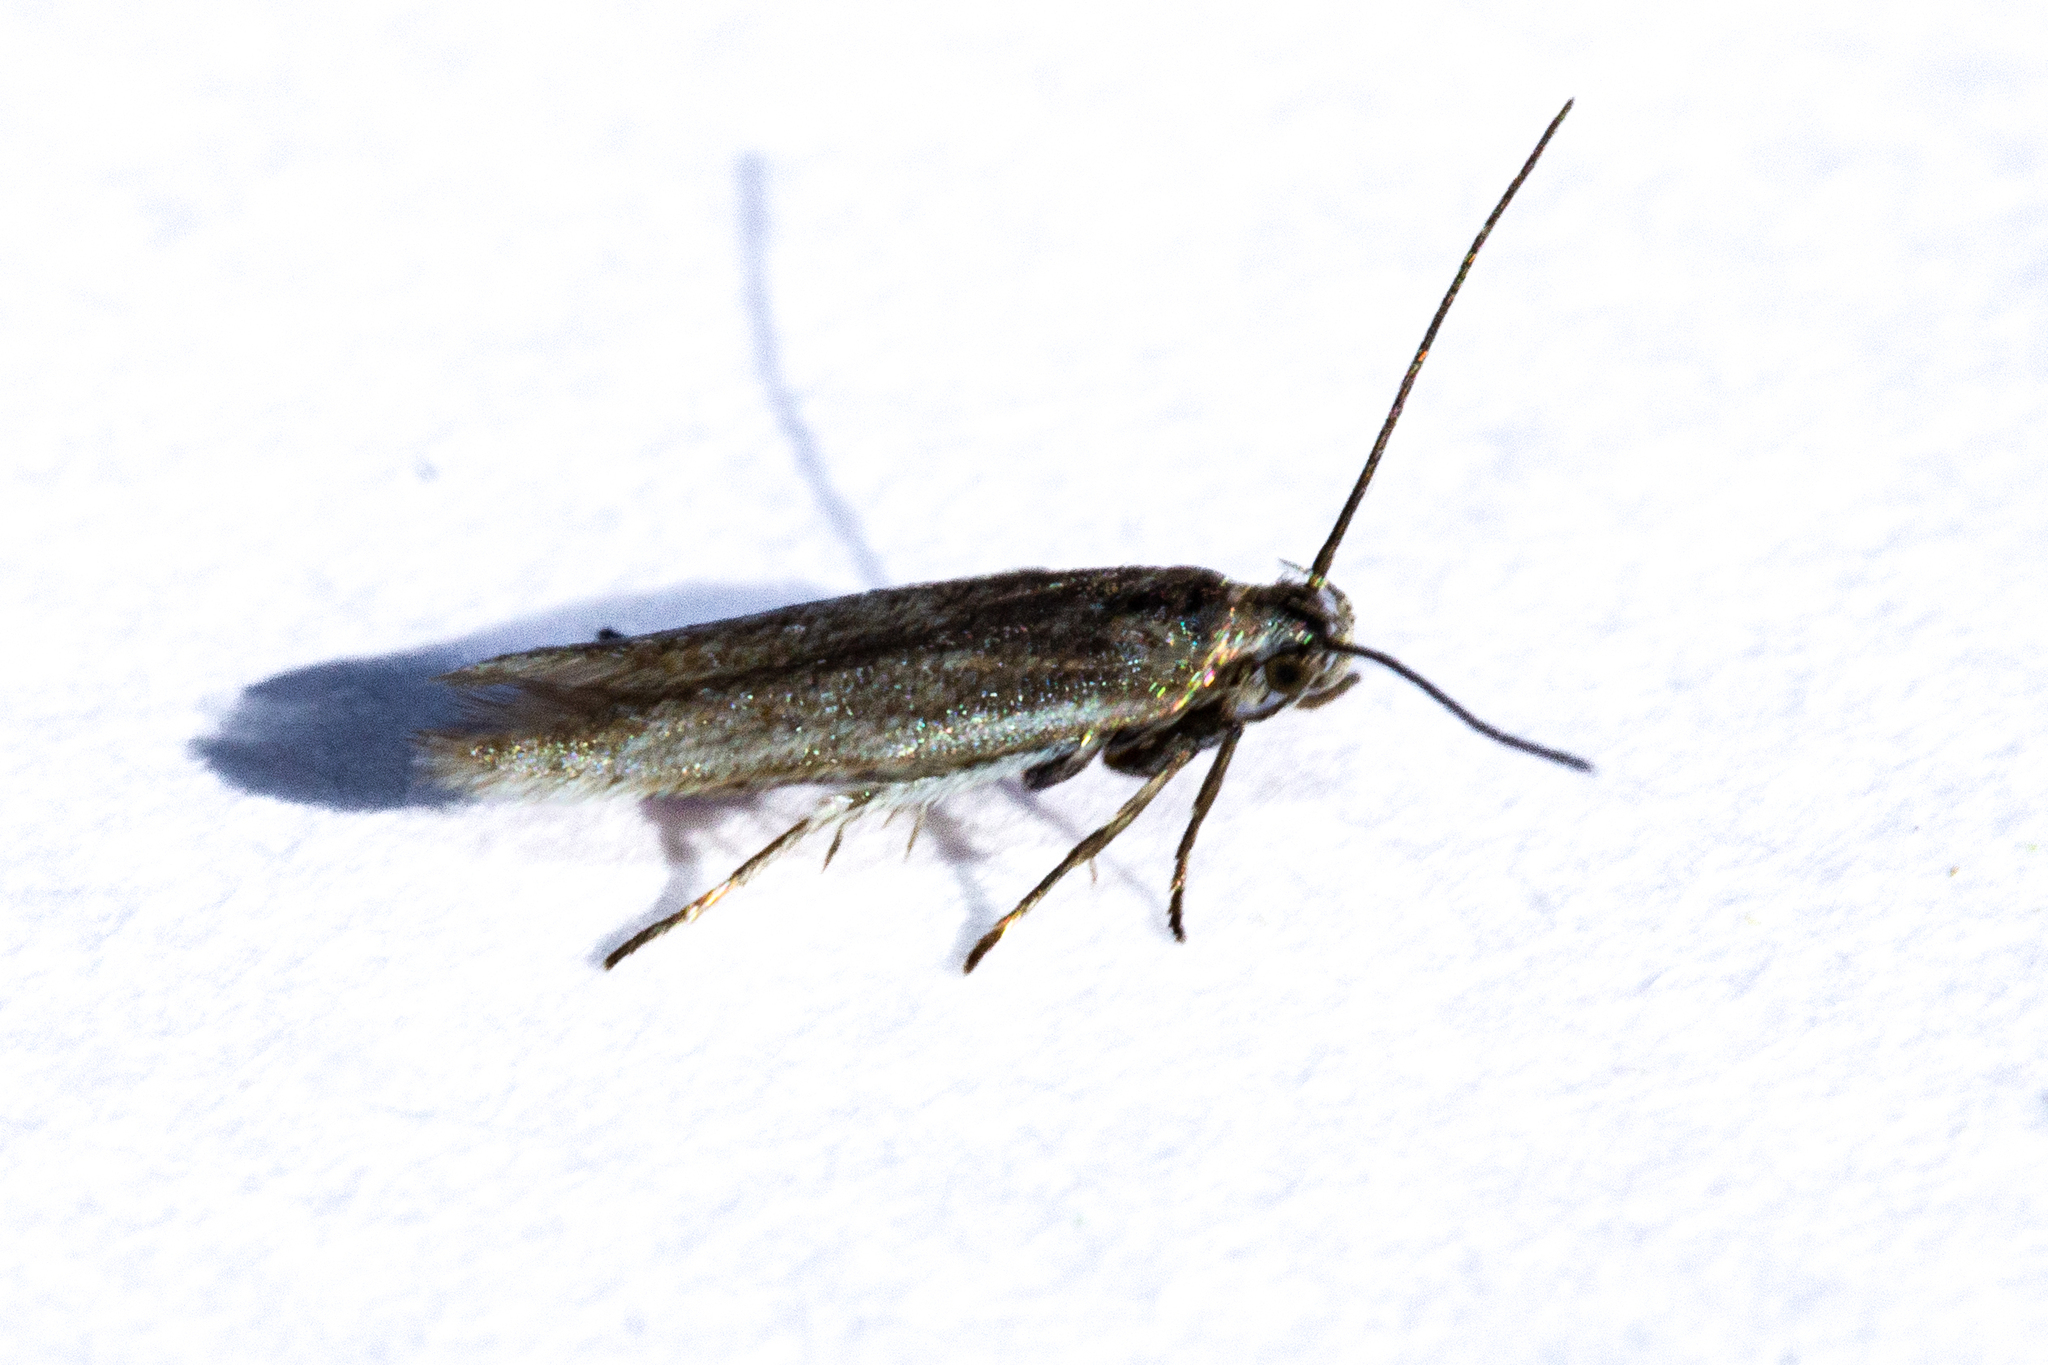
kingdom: Animalia
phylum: Arthropoda
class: Insecta
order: Lepidoptera
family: Gelechiidae
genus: Kiwaia
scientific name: Kiwaia plemochoa
